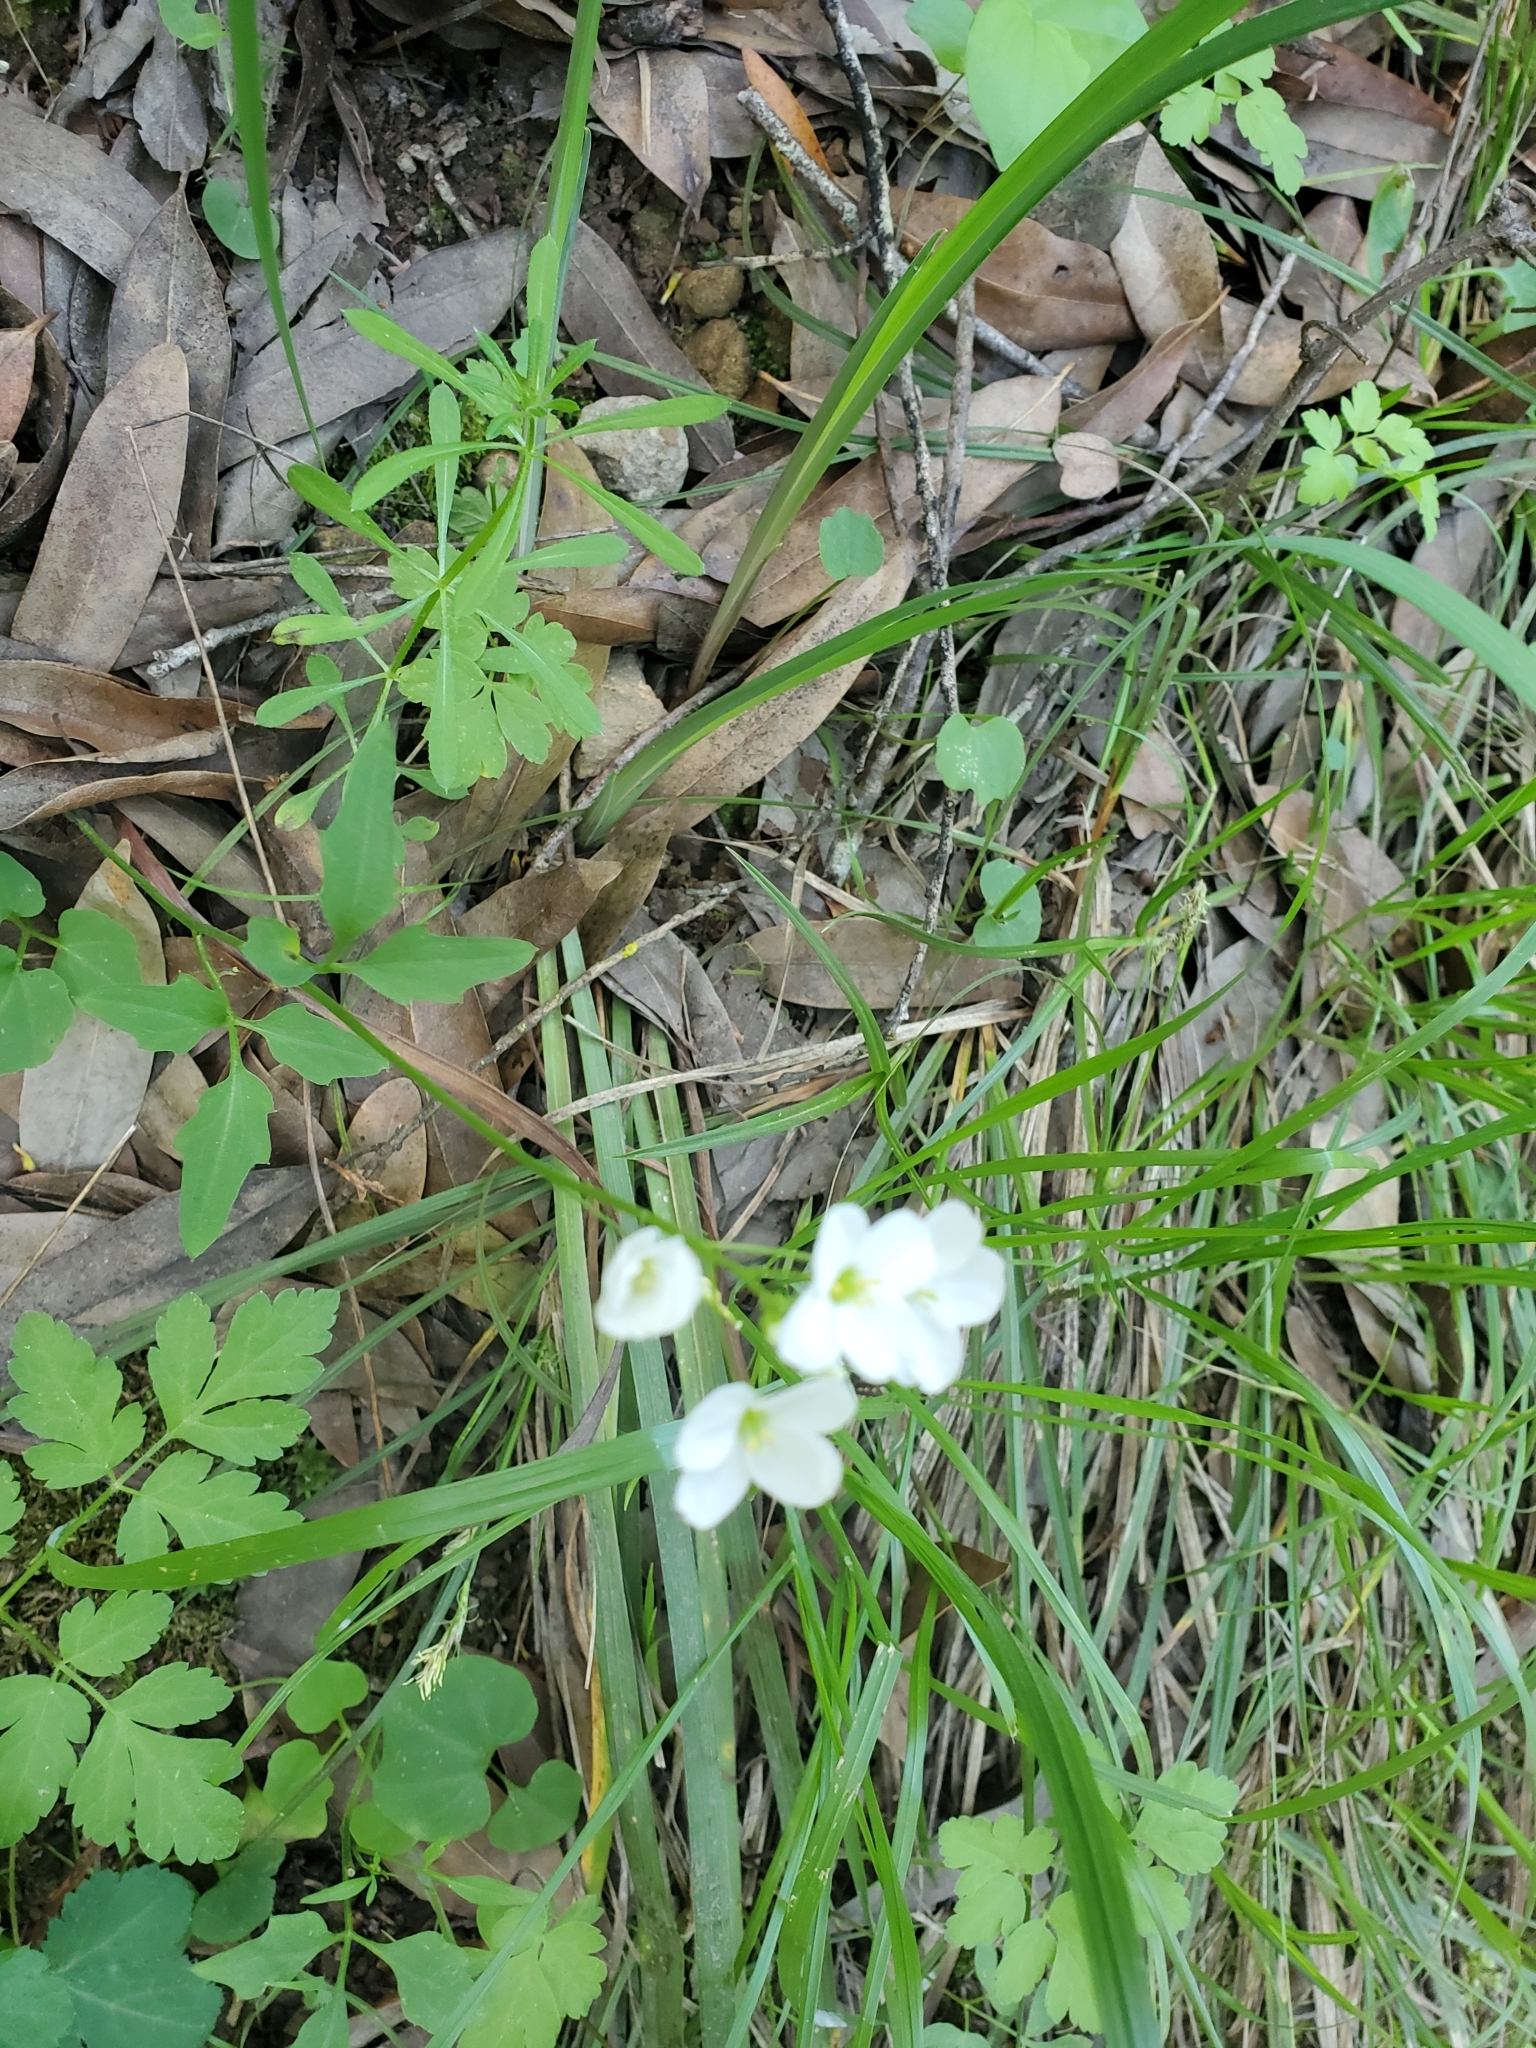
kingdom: Plantae
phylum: Tracheophyta
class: Magnoliopsida
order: Brassicales
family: Brassicaceae
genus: Cardamine
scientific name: Cardamine californica
